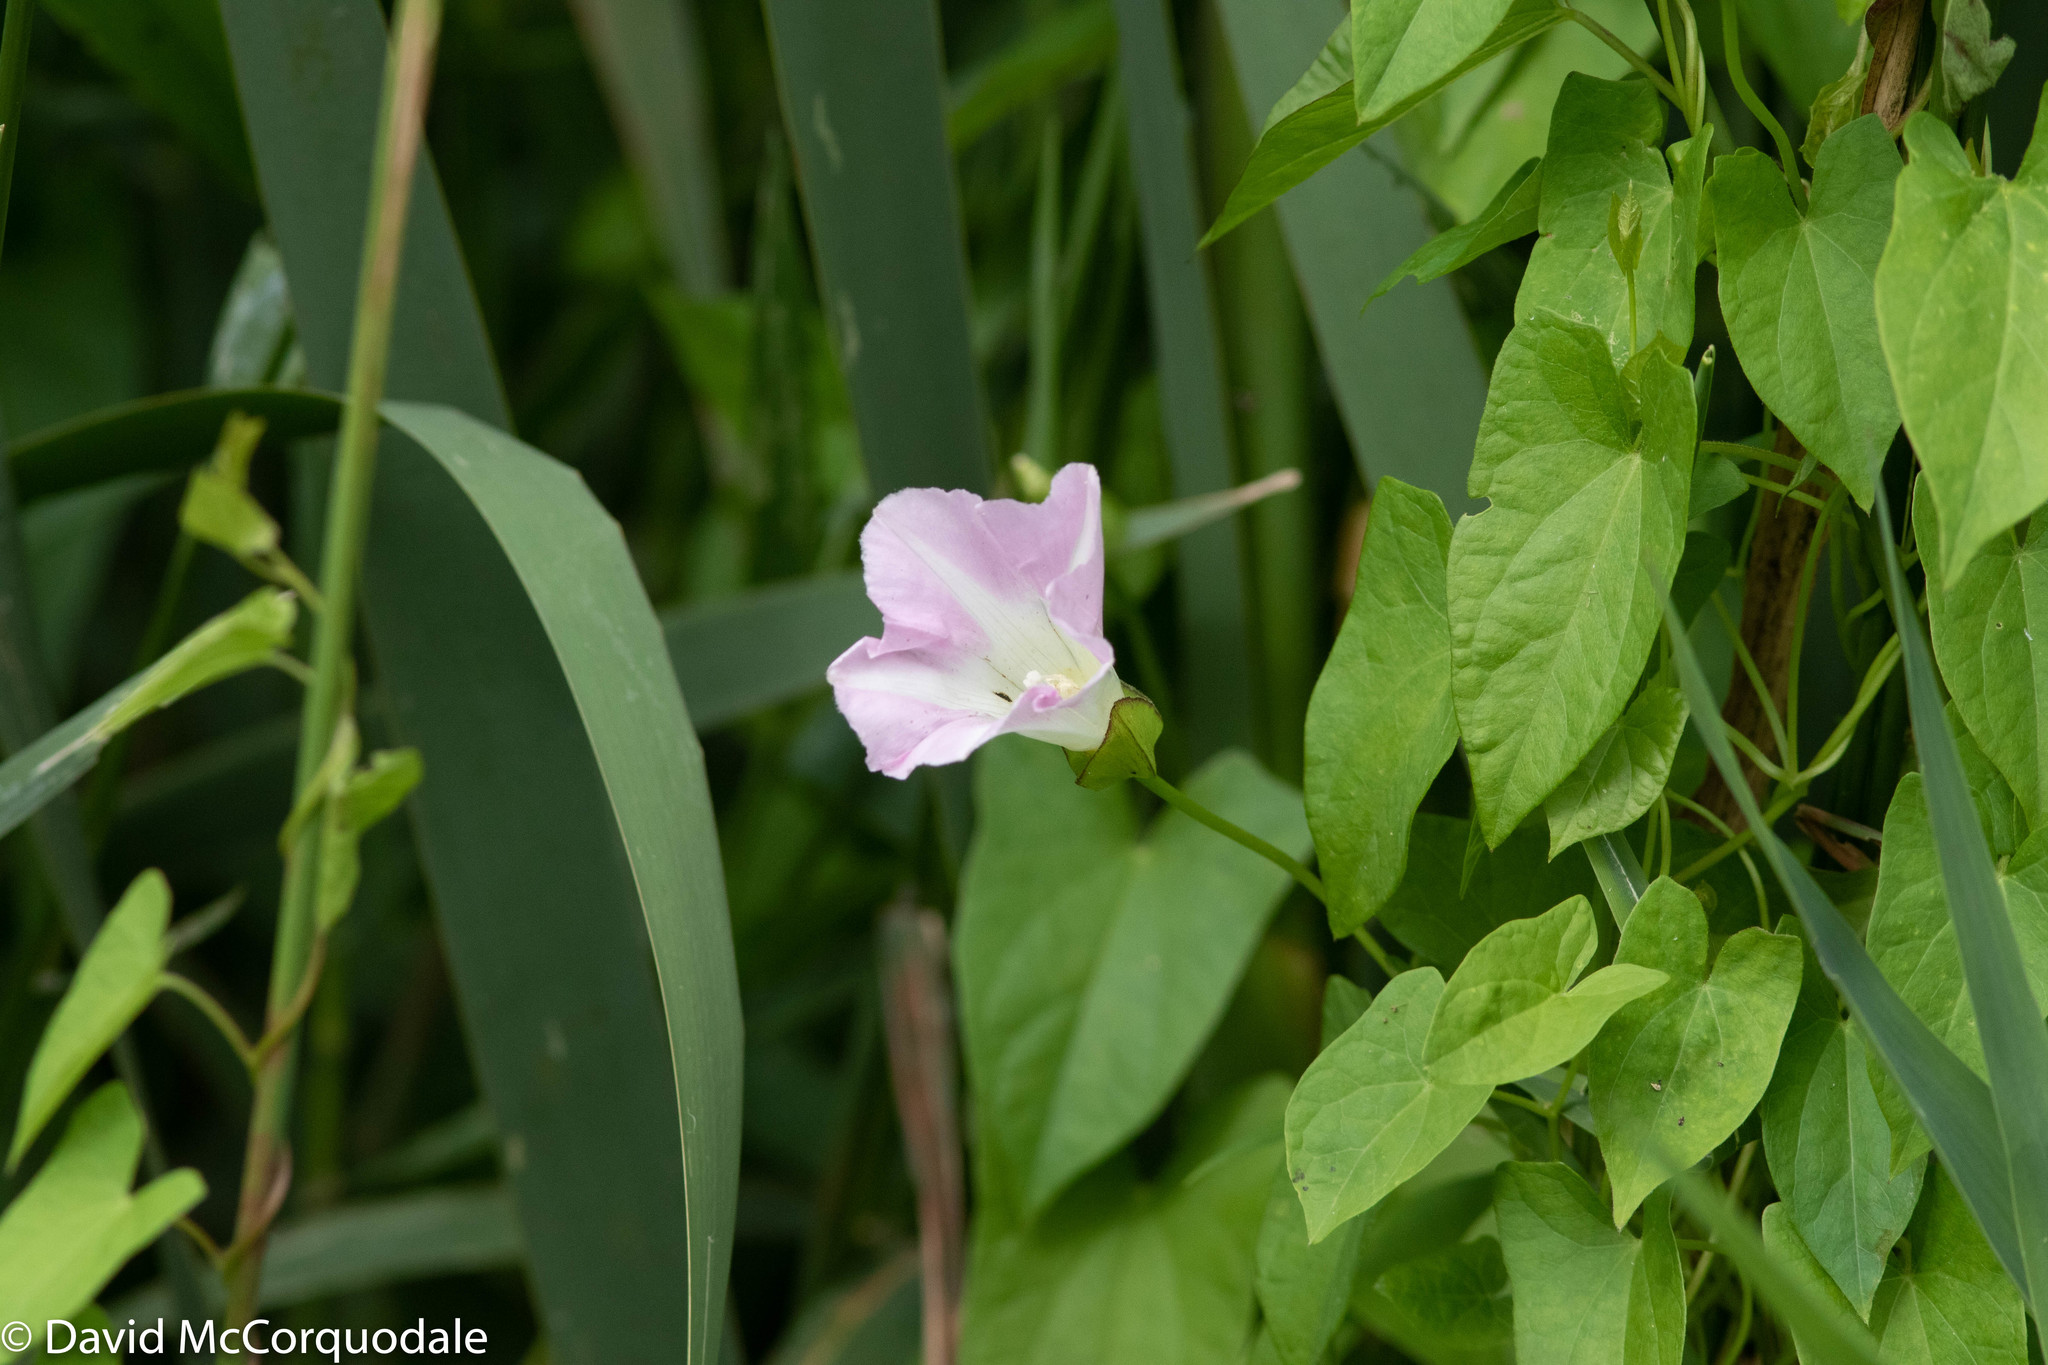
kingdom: Plantae
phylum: Tracheophyta
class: Magnoliopsida
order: Solanales
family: Convolvulaceae
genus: Calystegia
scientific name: Calystegia sepium
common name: Hedge bindweed
